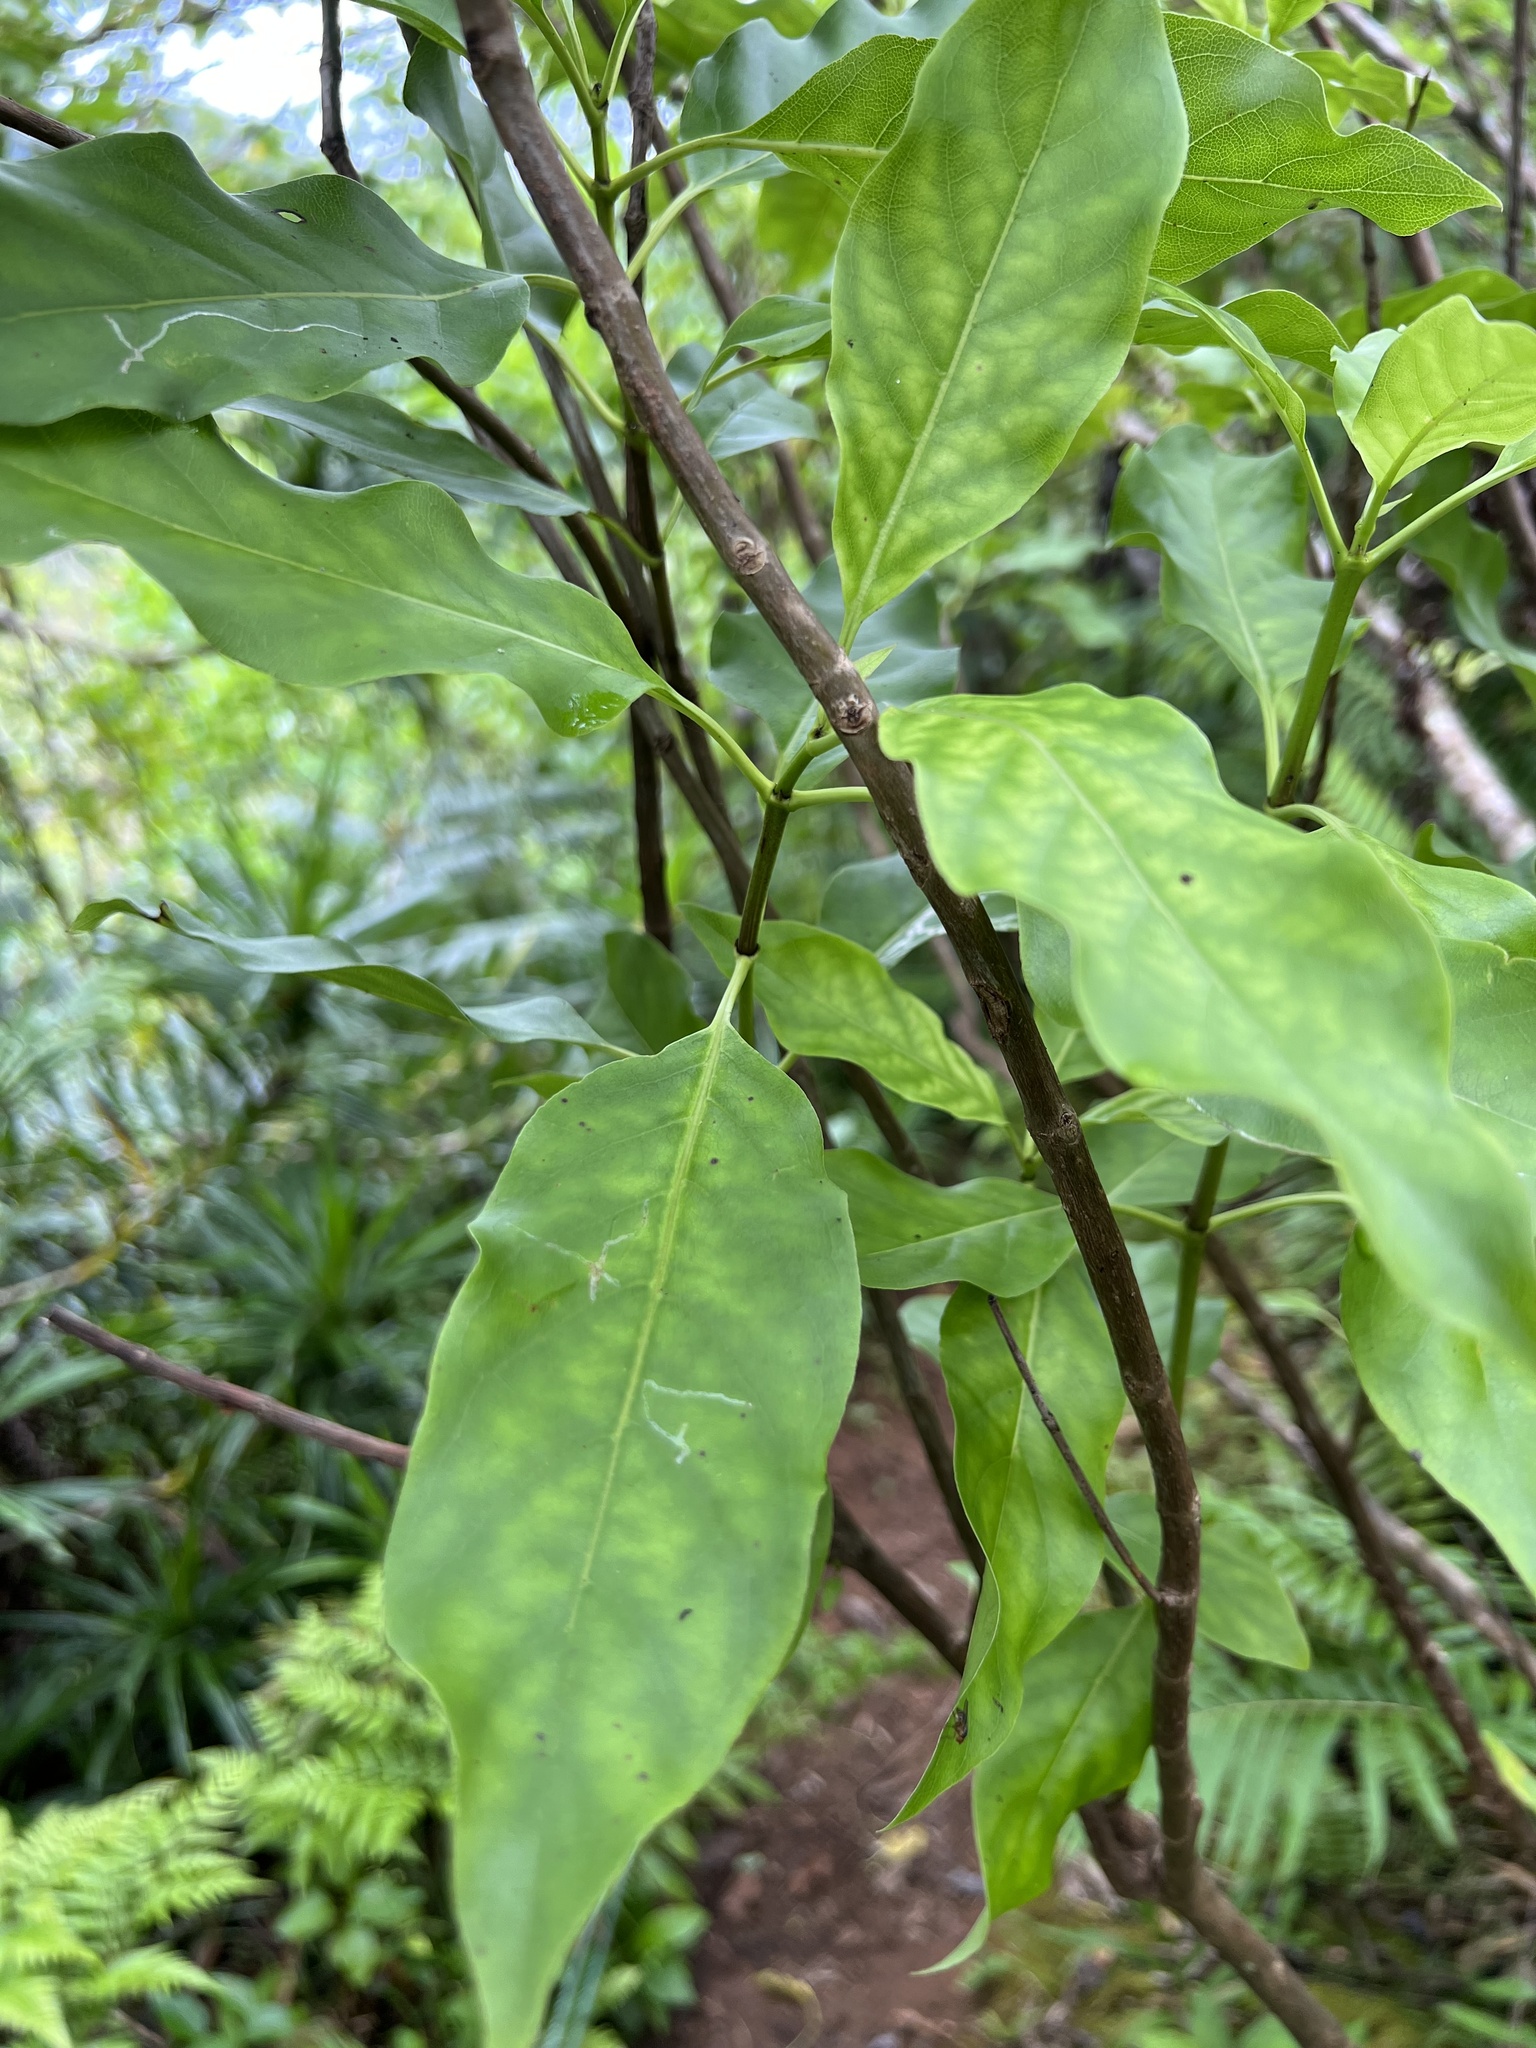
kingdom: Plantae
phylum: Tracheophyta
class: Magnoliopsida
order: Gentianales
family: Rubiaceae
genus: Coprosma
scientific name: Coprosma laevigata
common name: Rarotongan coprosma
